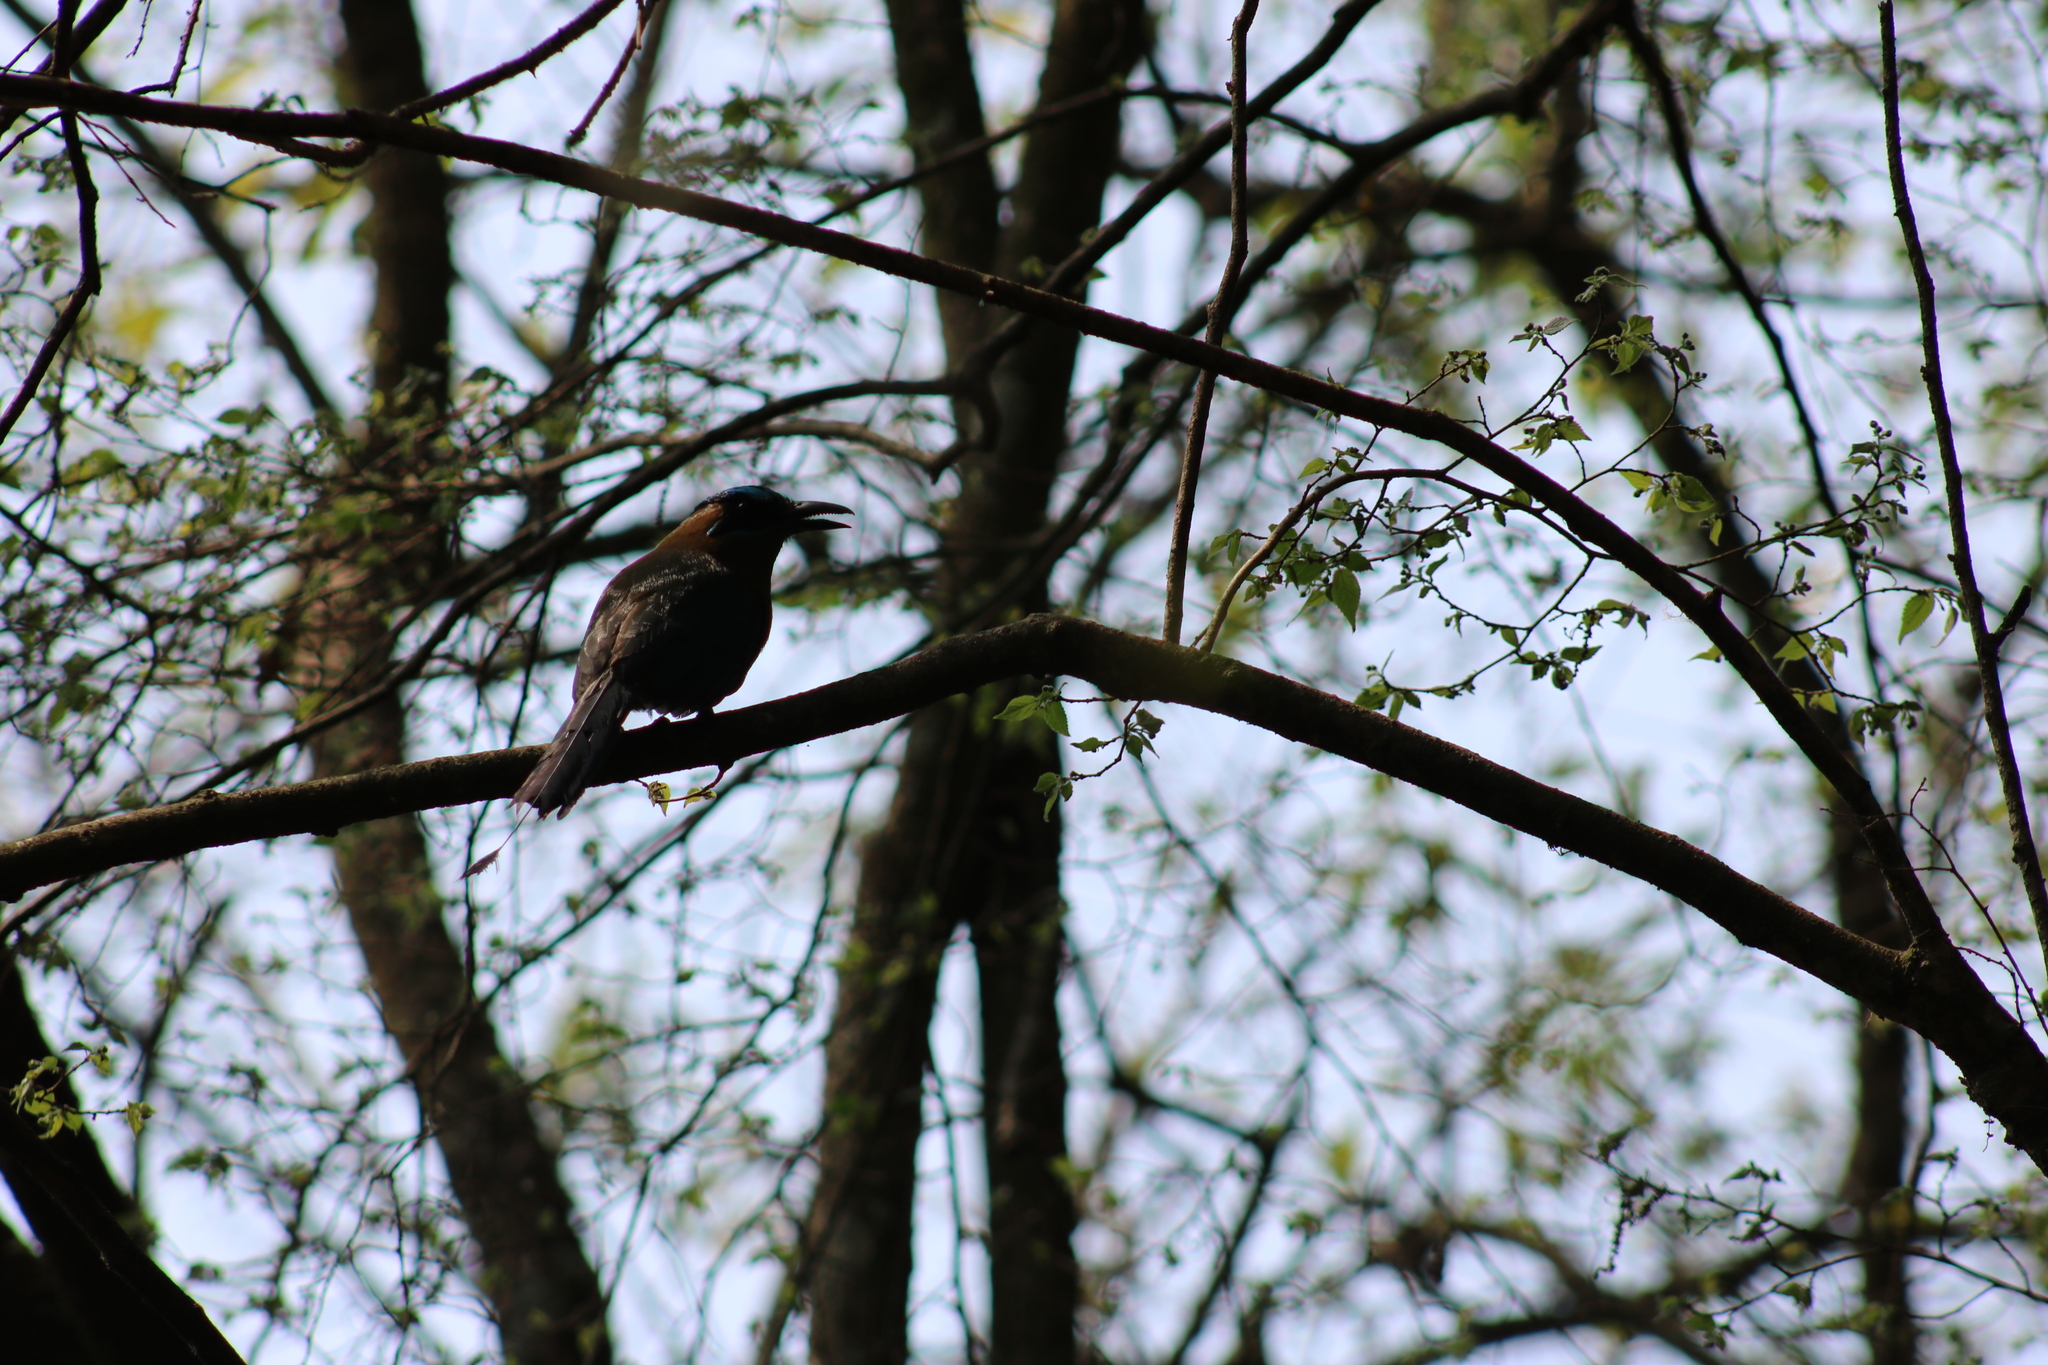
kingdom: Animalia
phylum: Chordata
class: Aves
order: Coraciiformes
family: Momotidae
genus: Momotus
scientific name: Momotus lessonii
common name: Lesson's motmot
